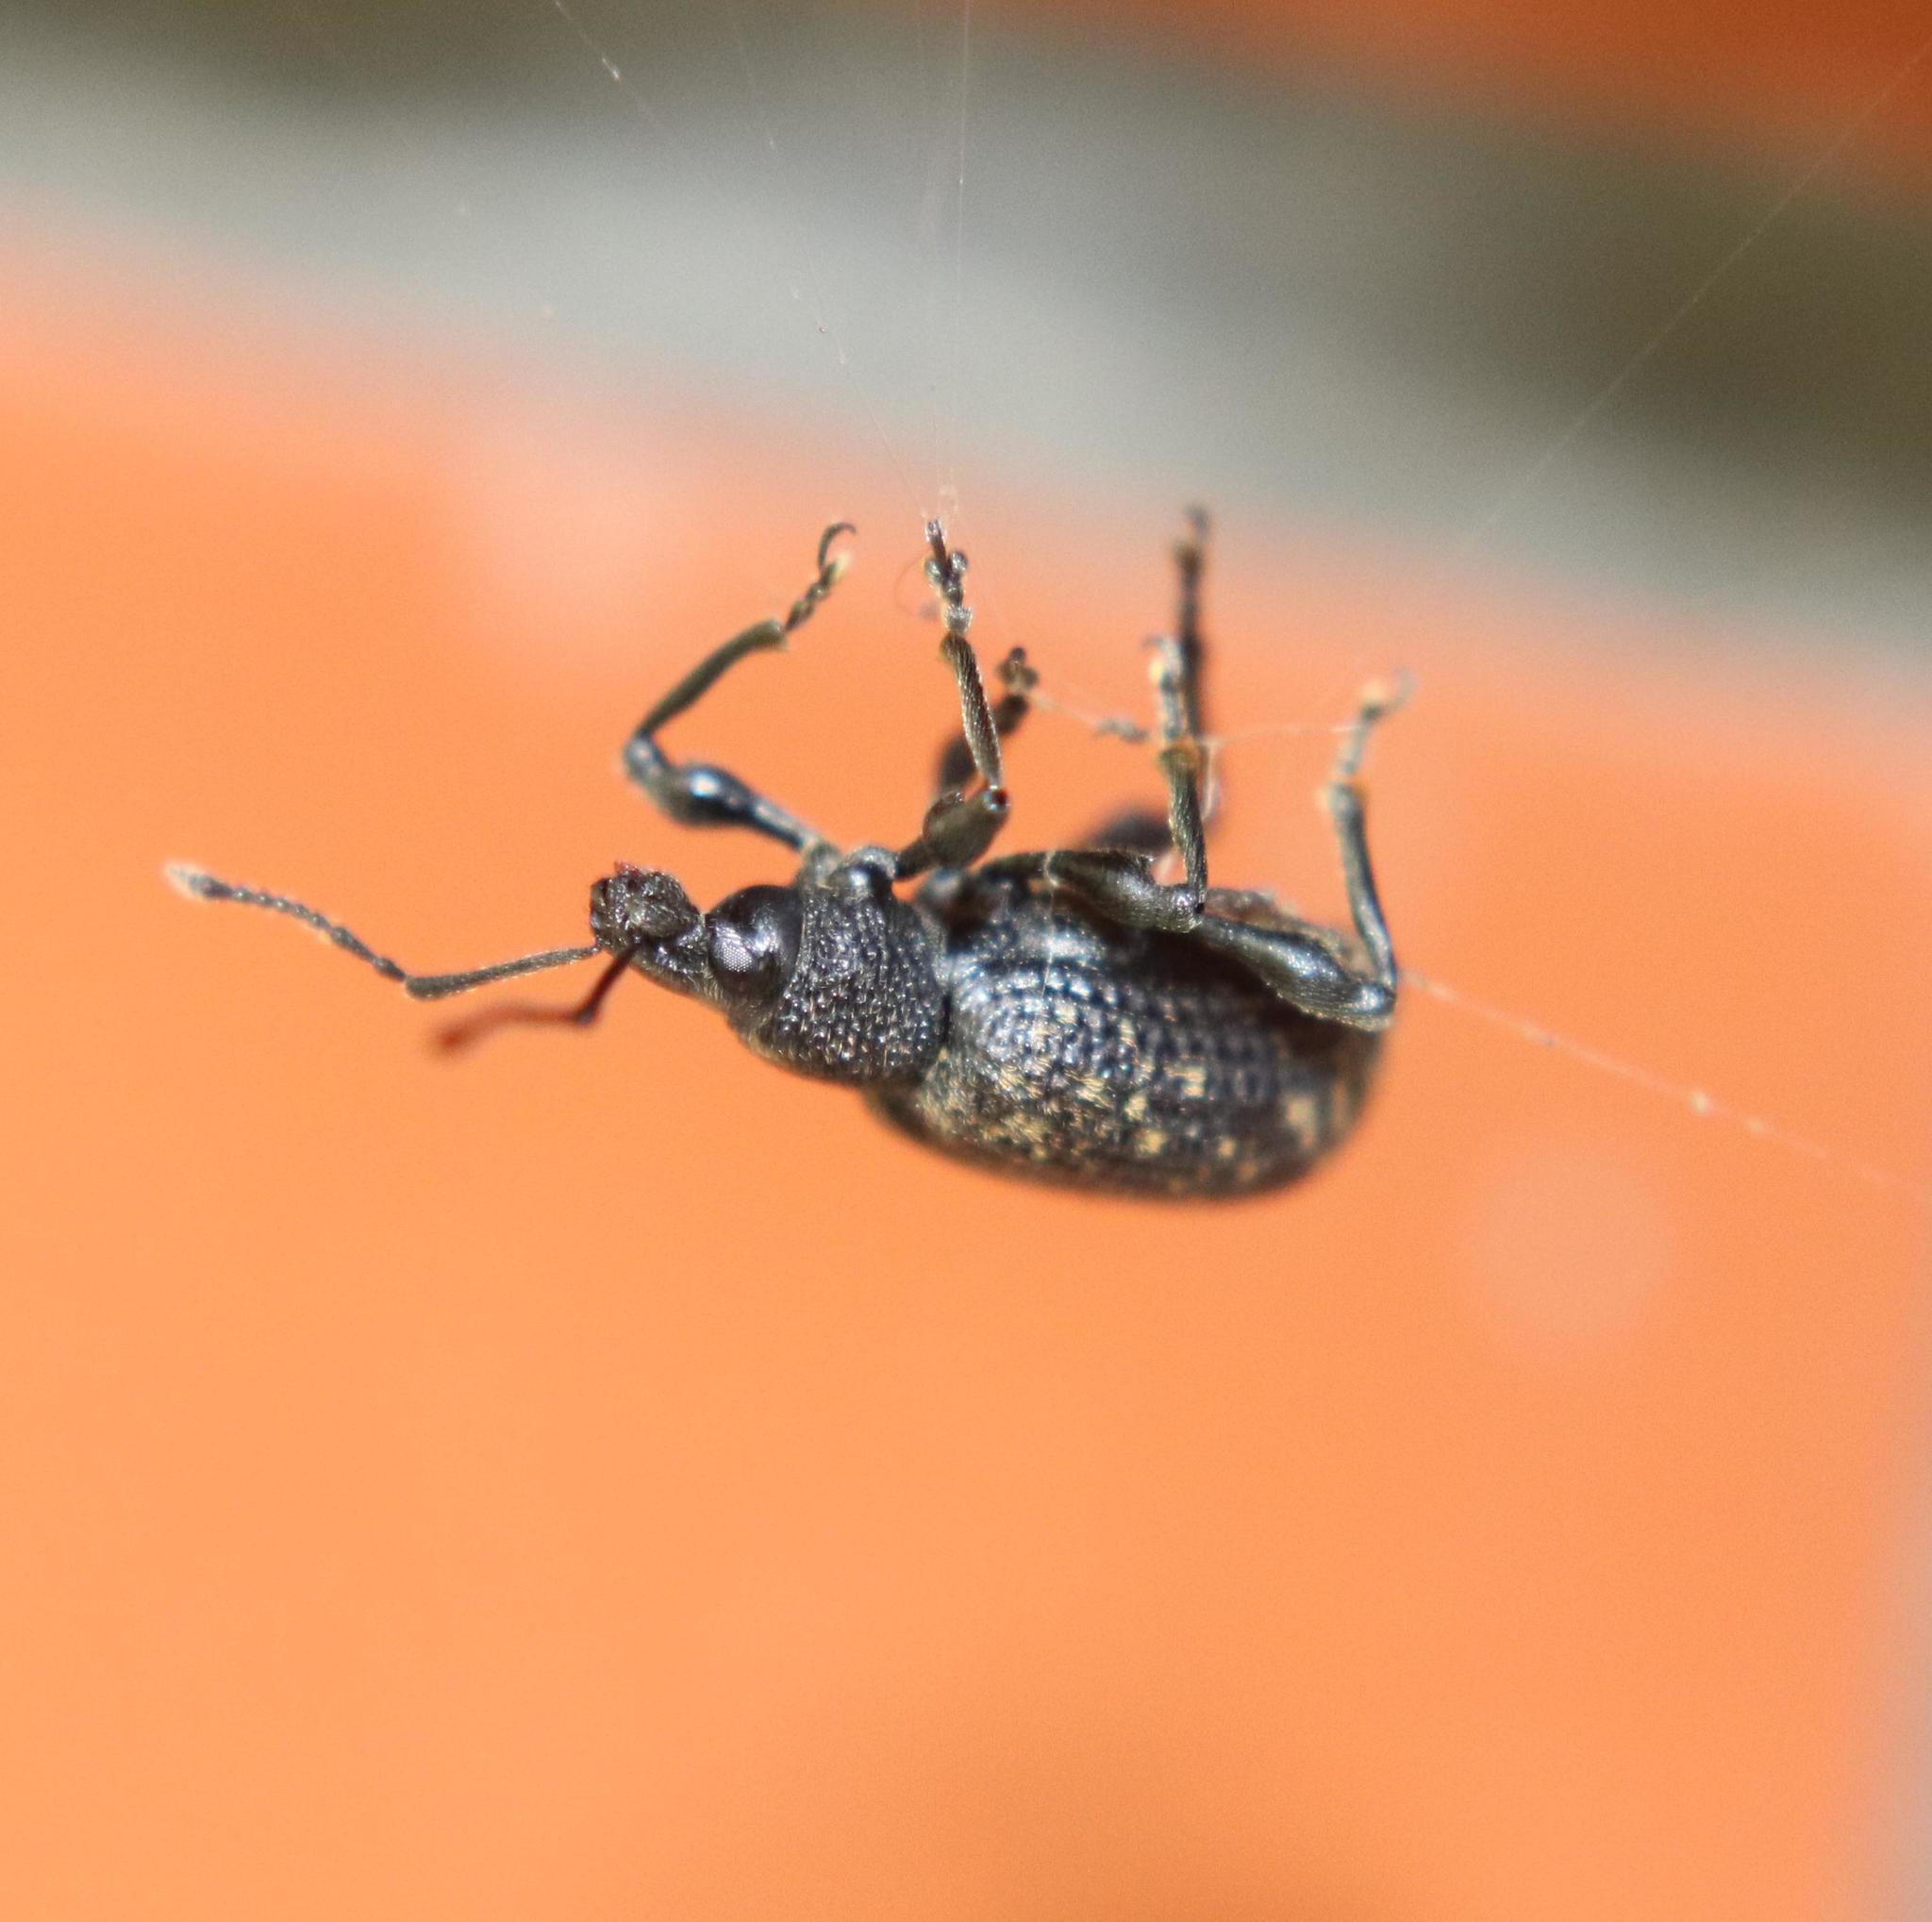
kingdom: Animalia
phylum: Arthropoda
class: Insecta
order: Coleoptera
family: Curculionidae
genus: Otiorhynchus
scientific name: Otiorhynchus sulcatus
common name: Black vine weevil
